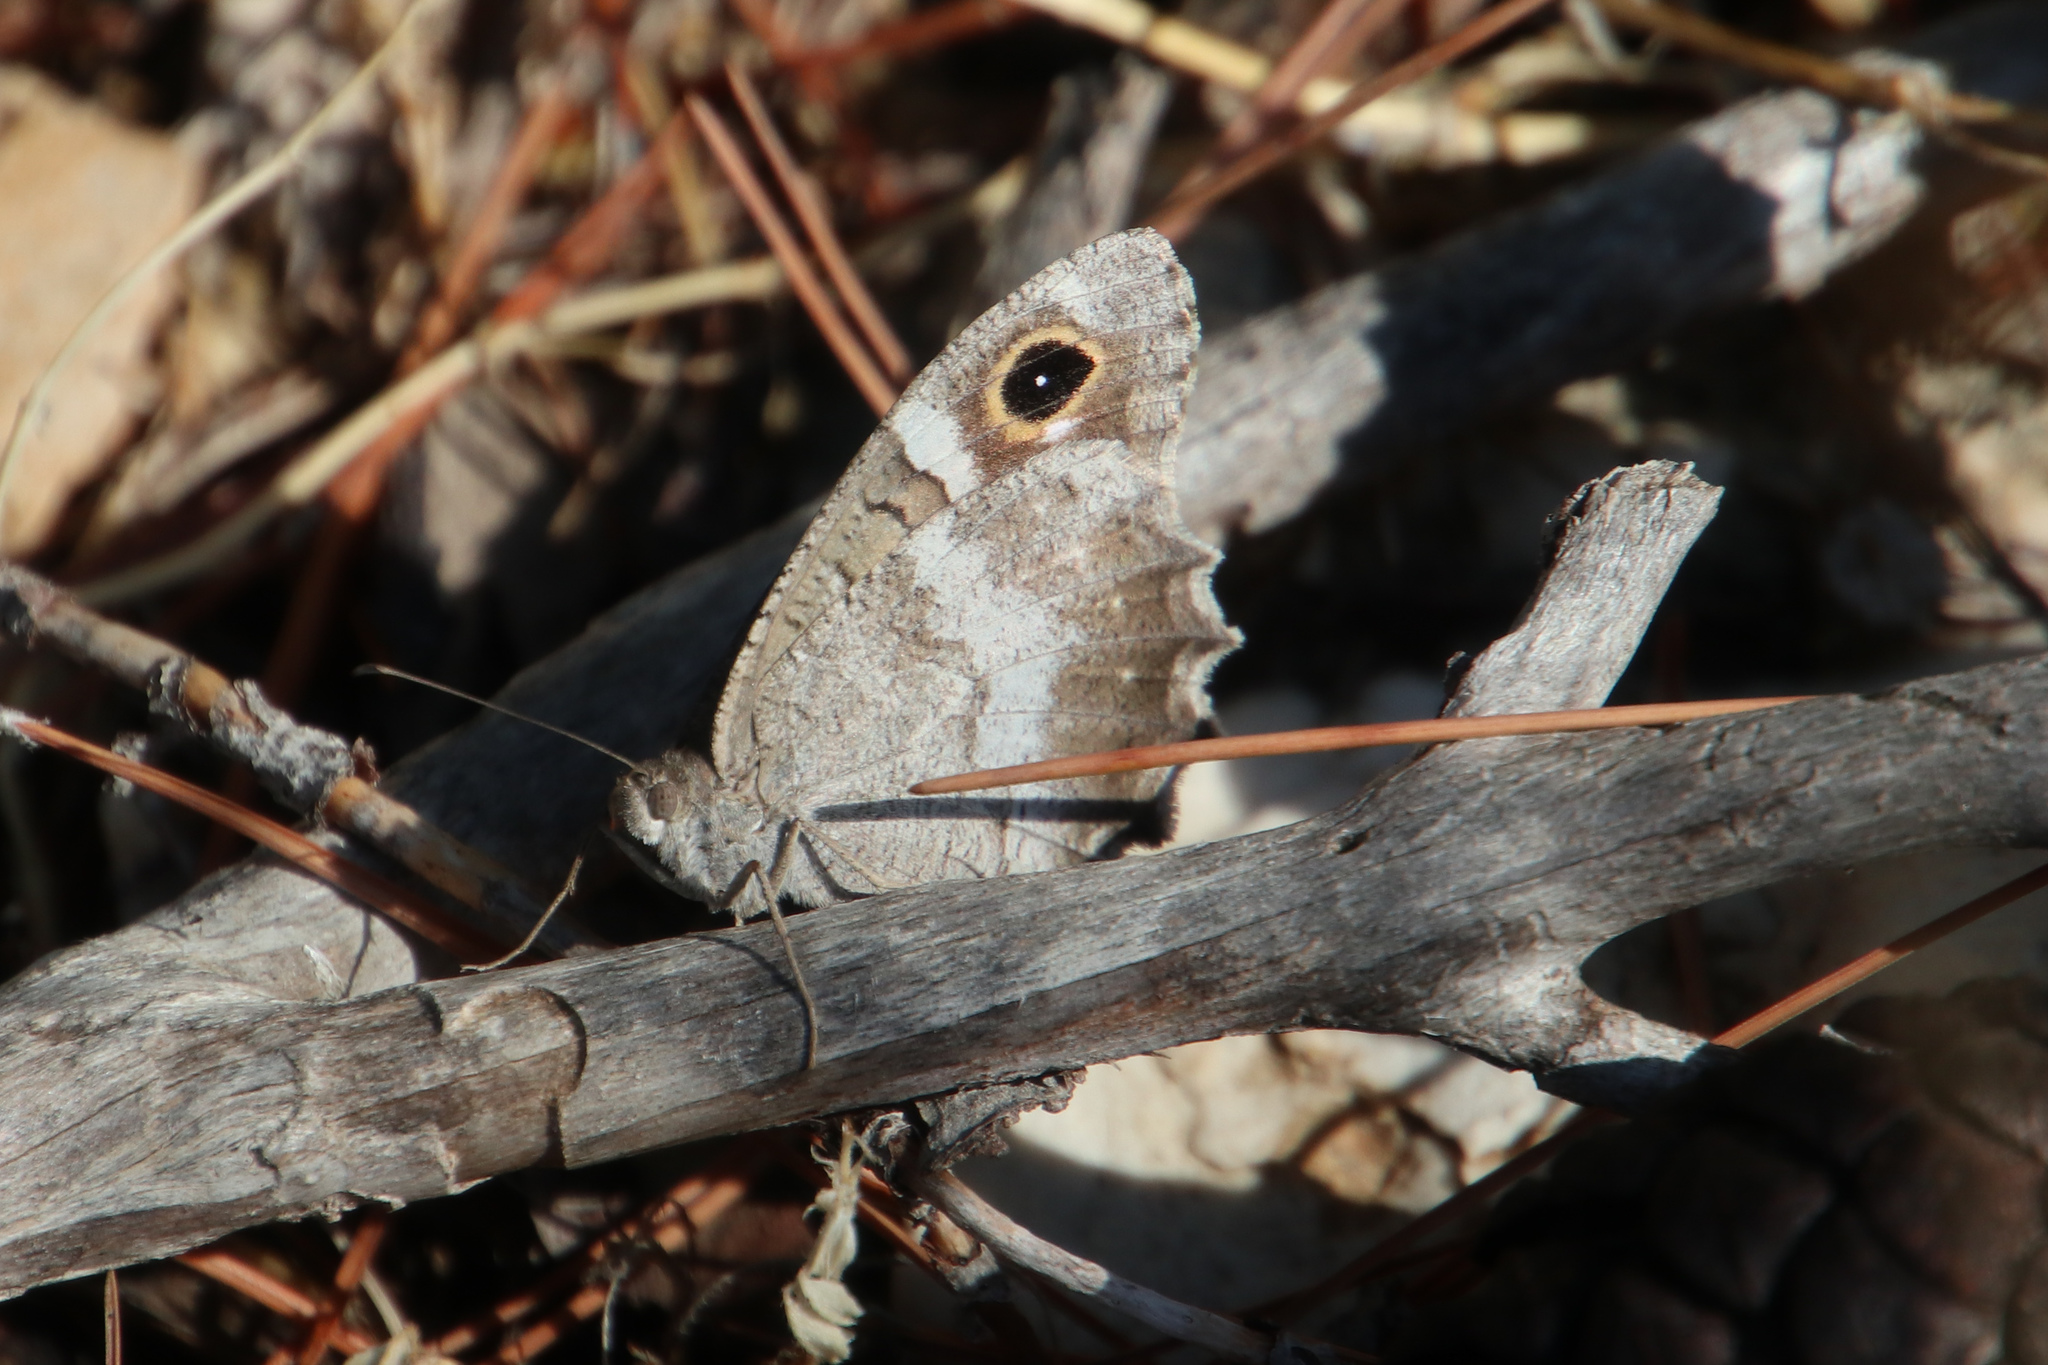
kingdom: Animalia
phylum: Arthropoda
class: Insecta
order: Lepidoptera
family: Nymphalidae
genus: Hipparchia
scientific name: Hipparchia statilinus
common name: Tree grayling
